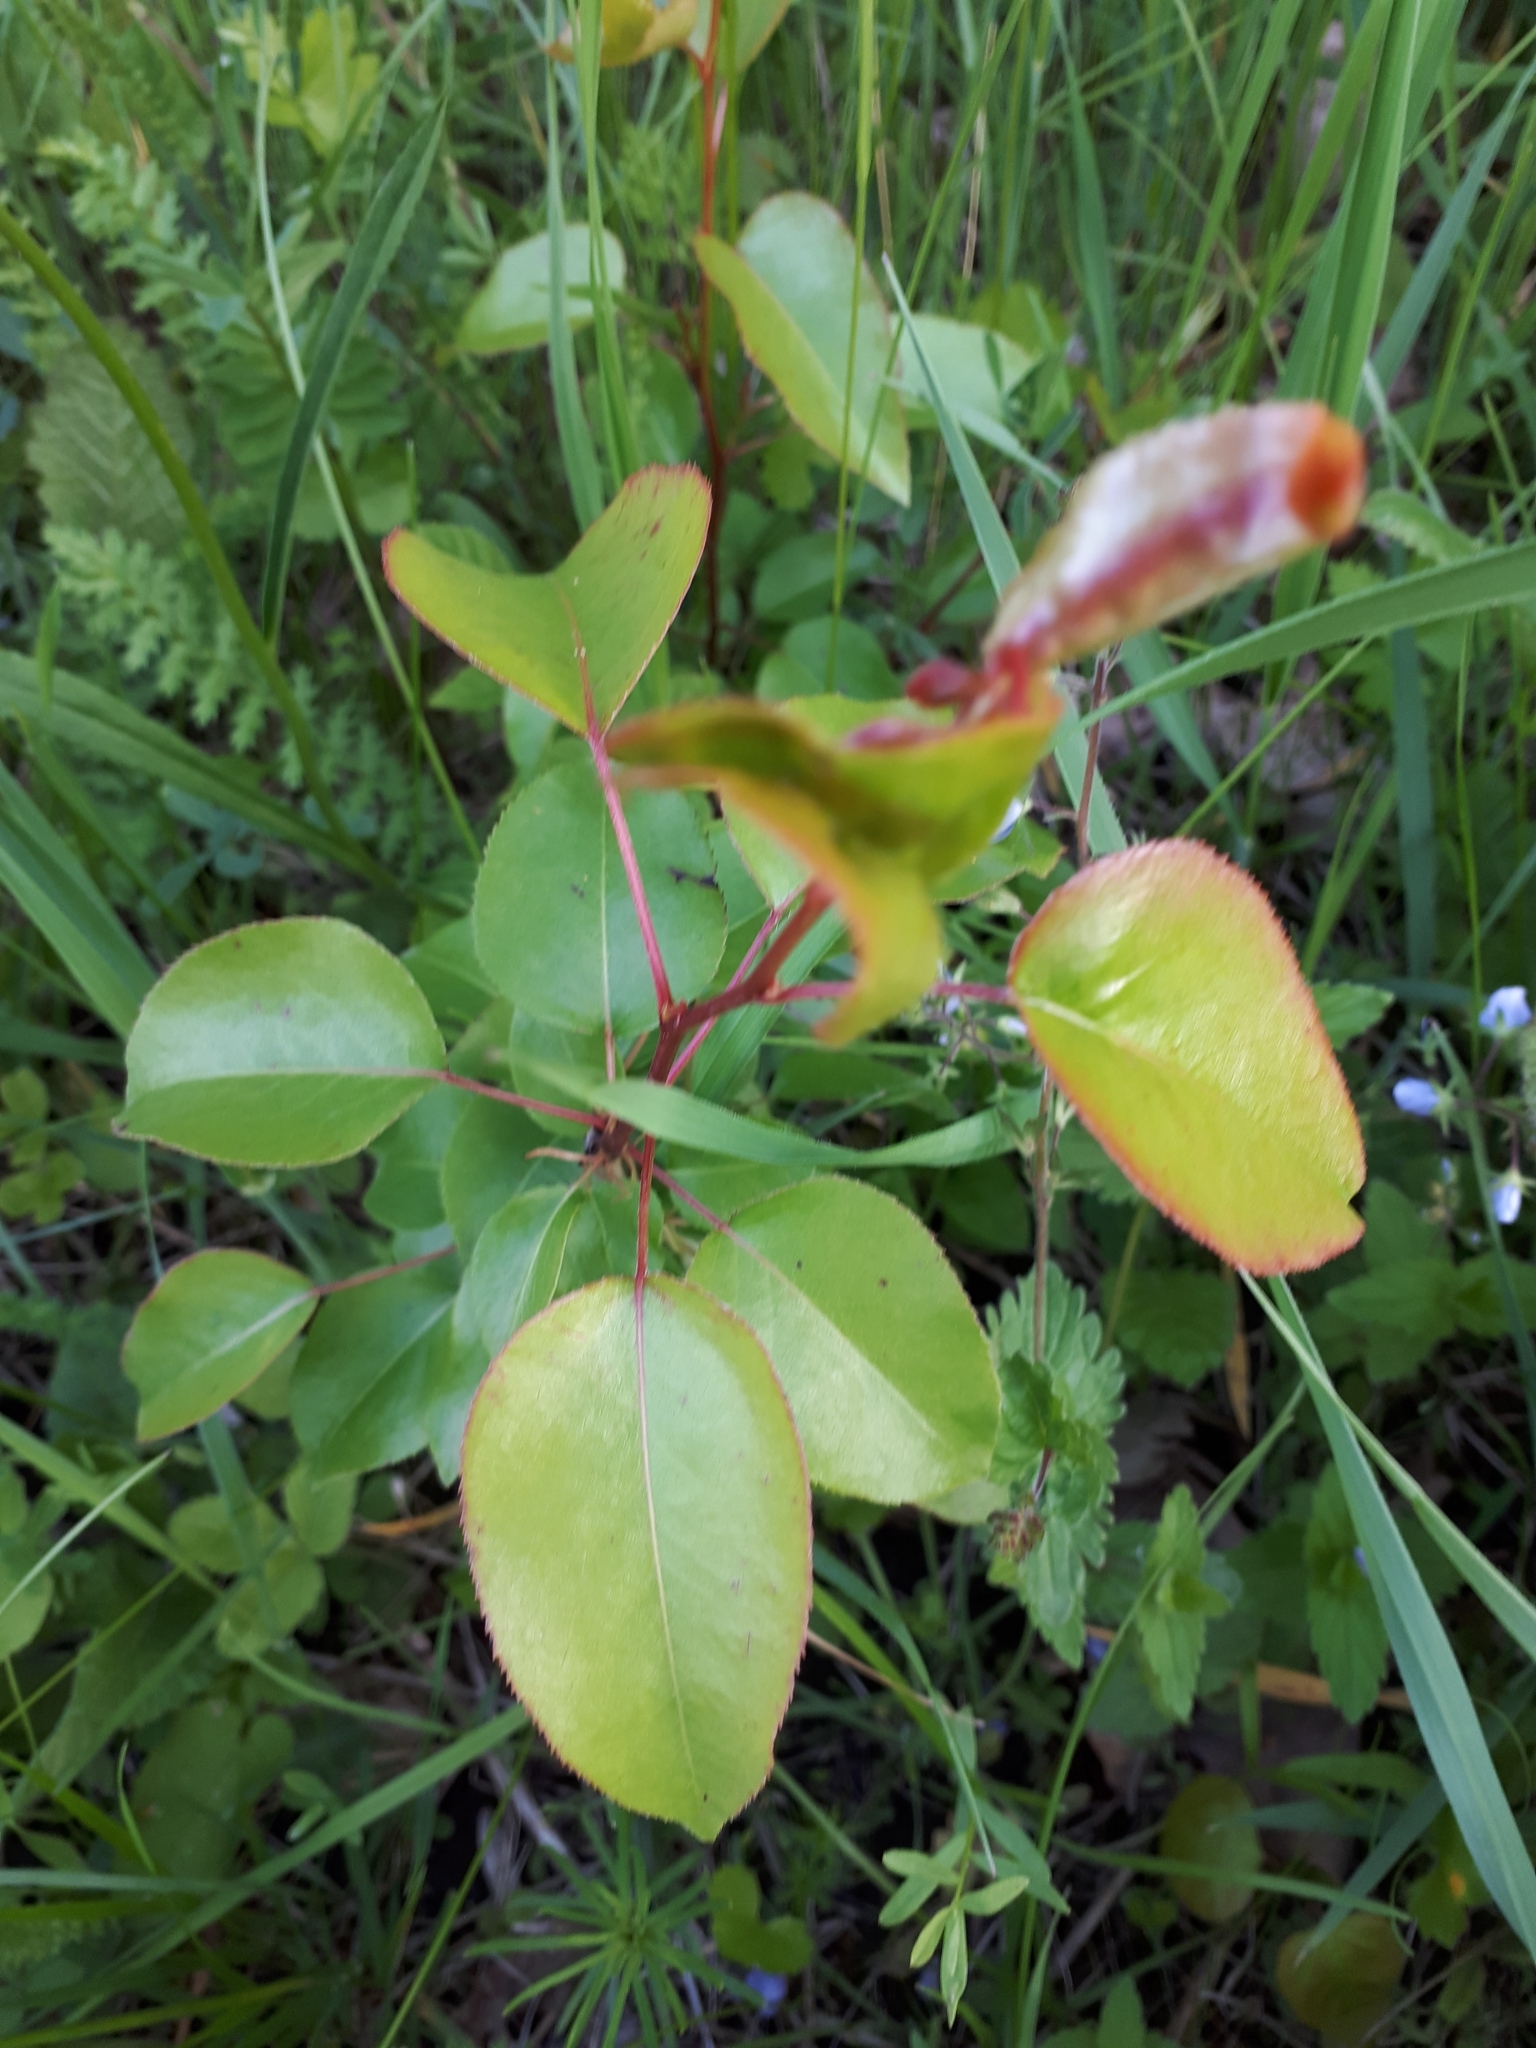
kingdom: Plantae
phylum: Tracheophyta
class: Magnoliopsida
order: Rosales
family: Rosaceae
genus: Pyrus
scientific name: Pyrus communis
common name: Pear
